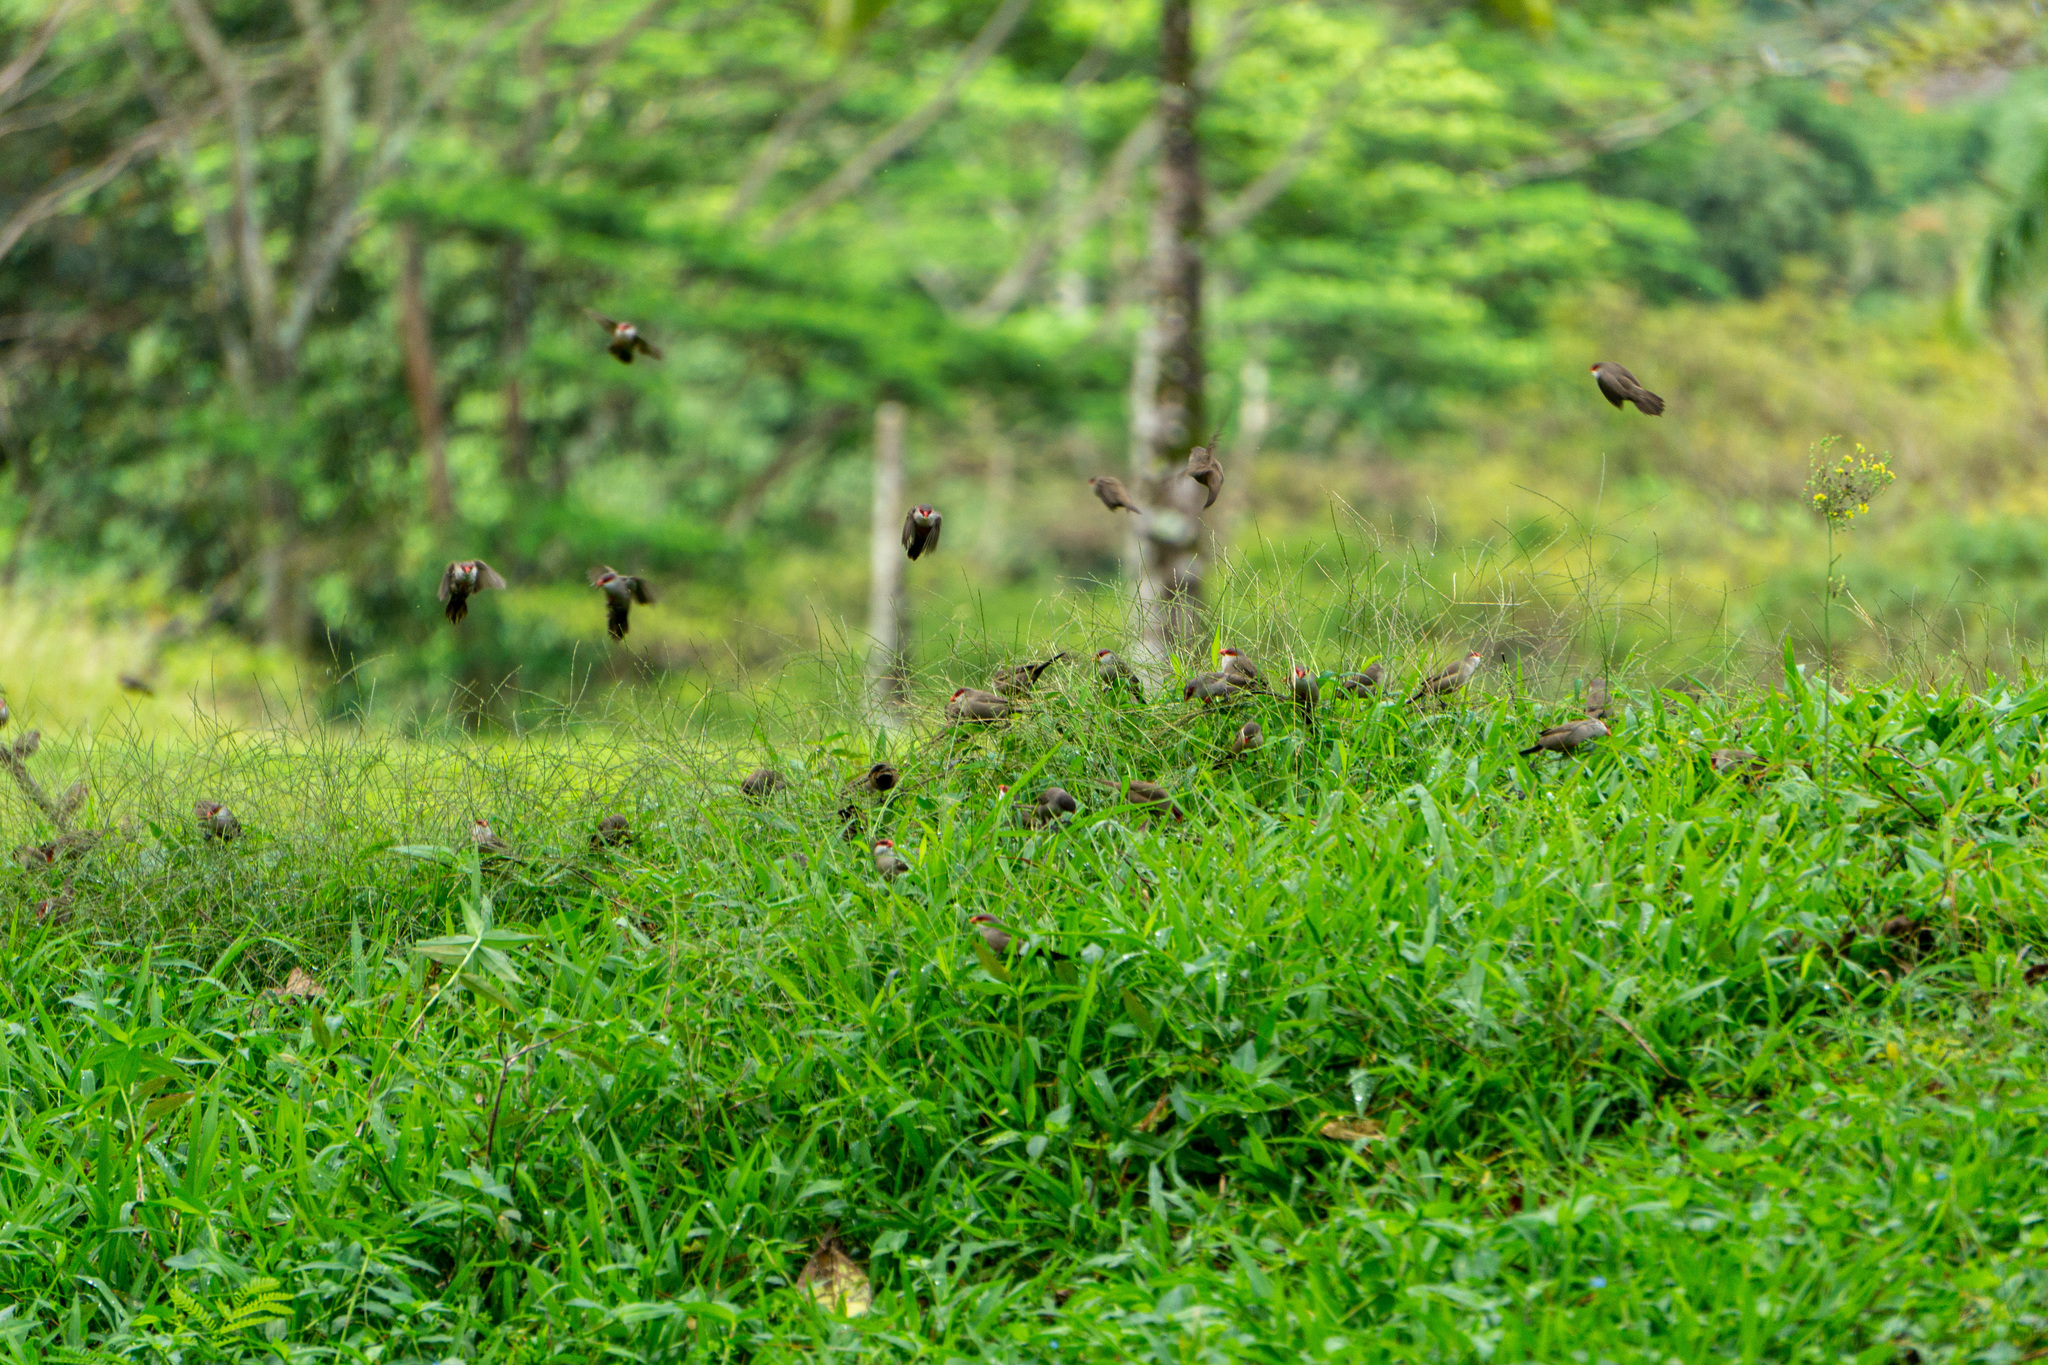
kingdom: Animalia
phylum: Chordata
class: Aves
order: Passeriformes
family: Estrildidae
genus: Estrilda
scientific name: Estrilda astrild
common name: Common waxbill
